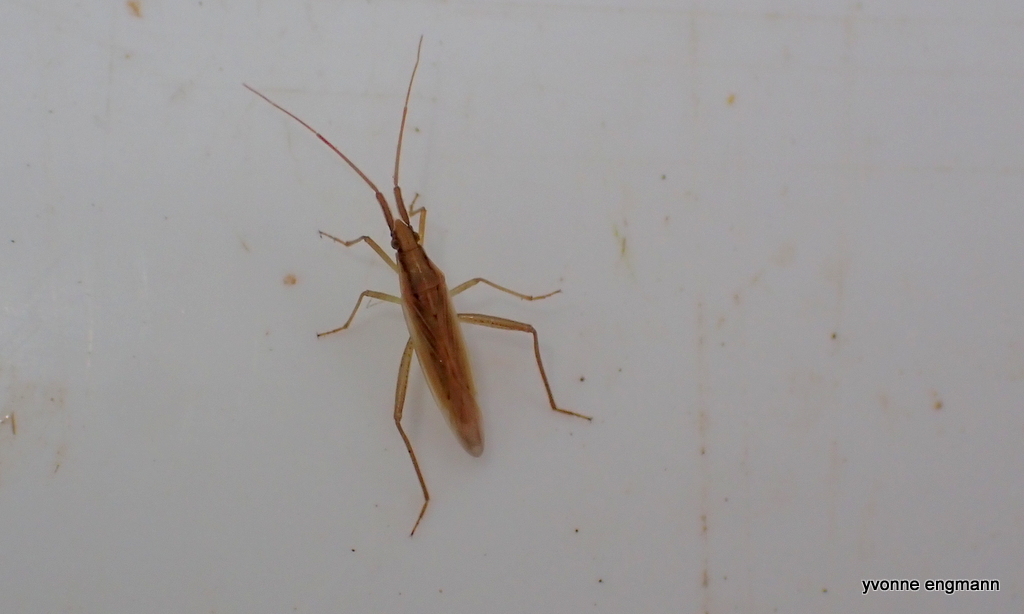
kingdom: Animalia
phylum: Arthropoda
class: Insecta
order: Hemiptera
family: Miridae
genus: Stenodema
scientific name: Stenodema laevigata
